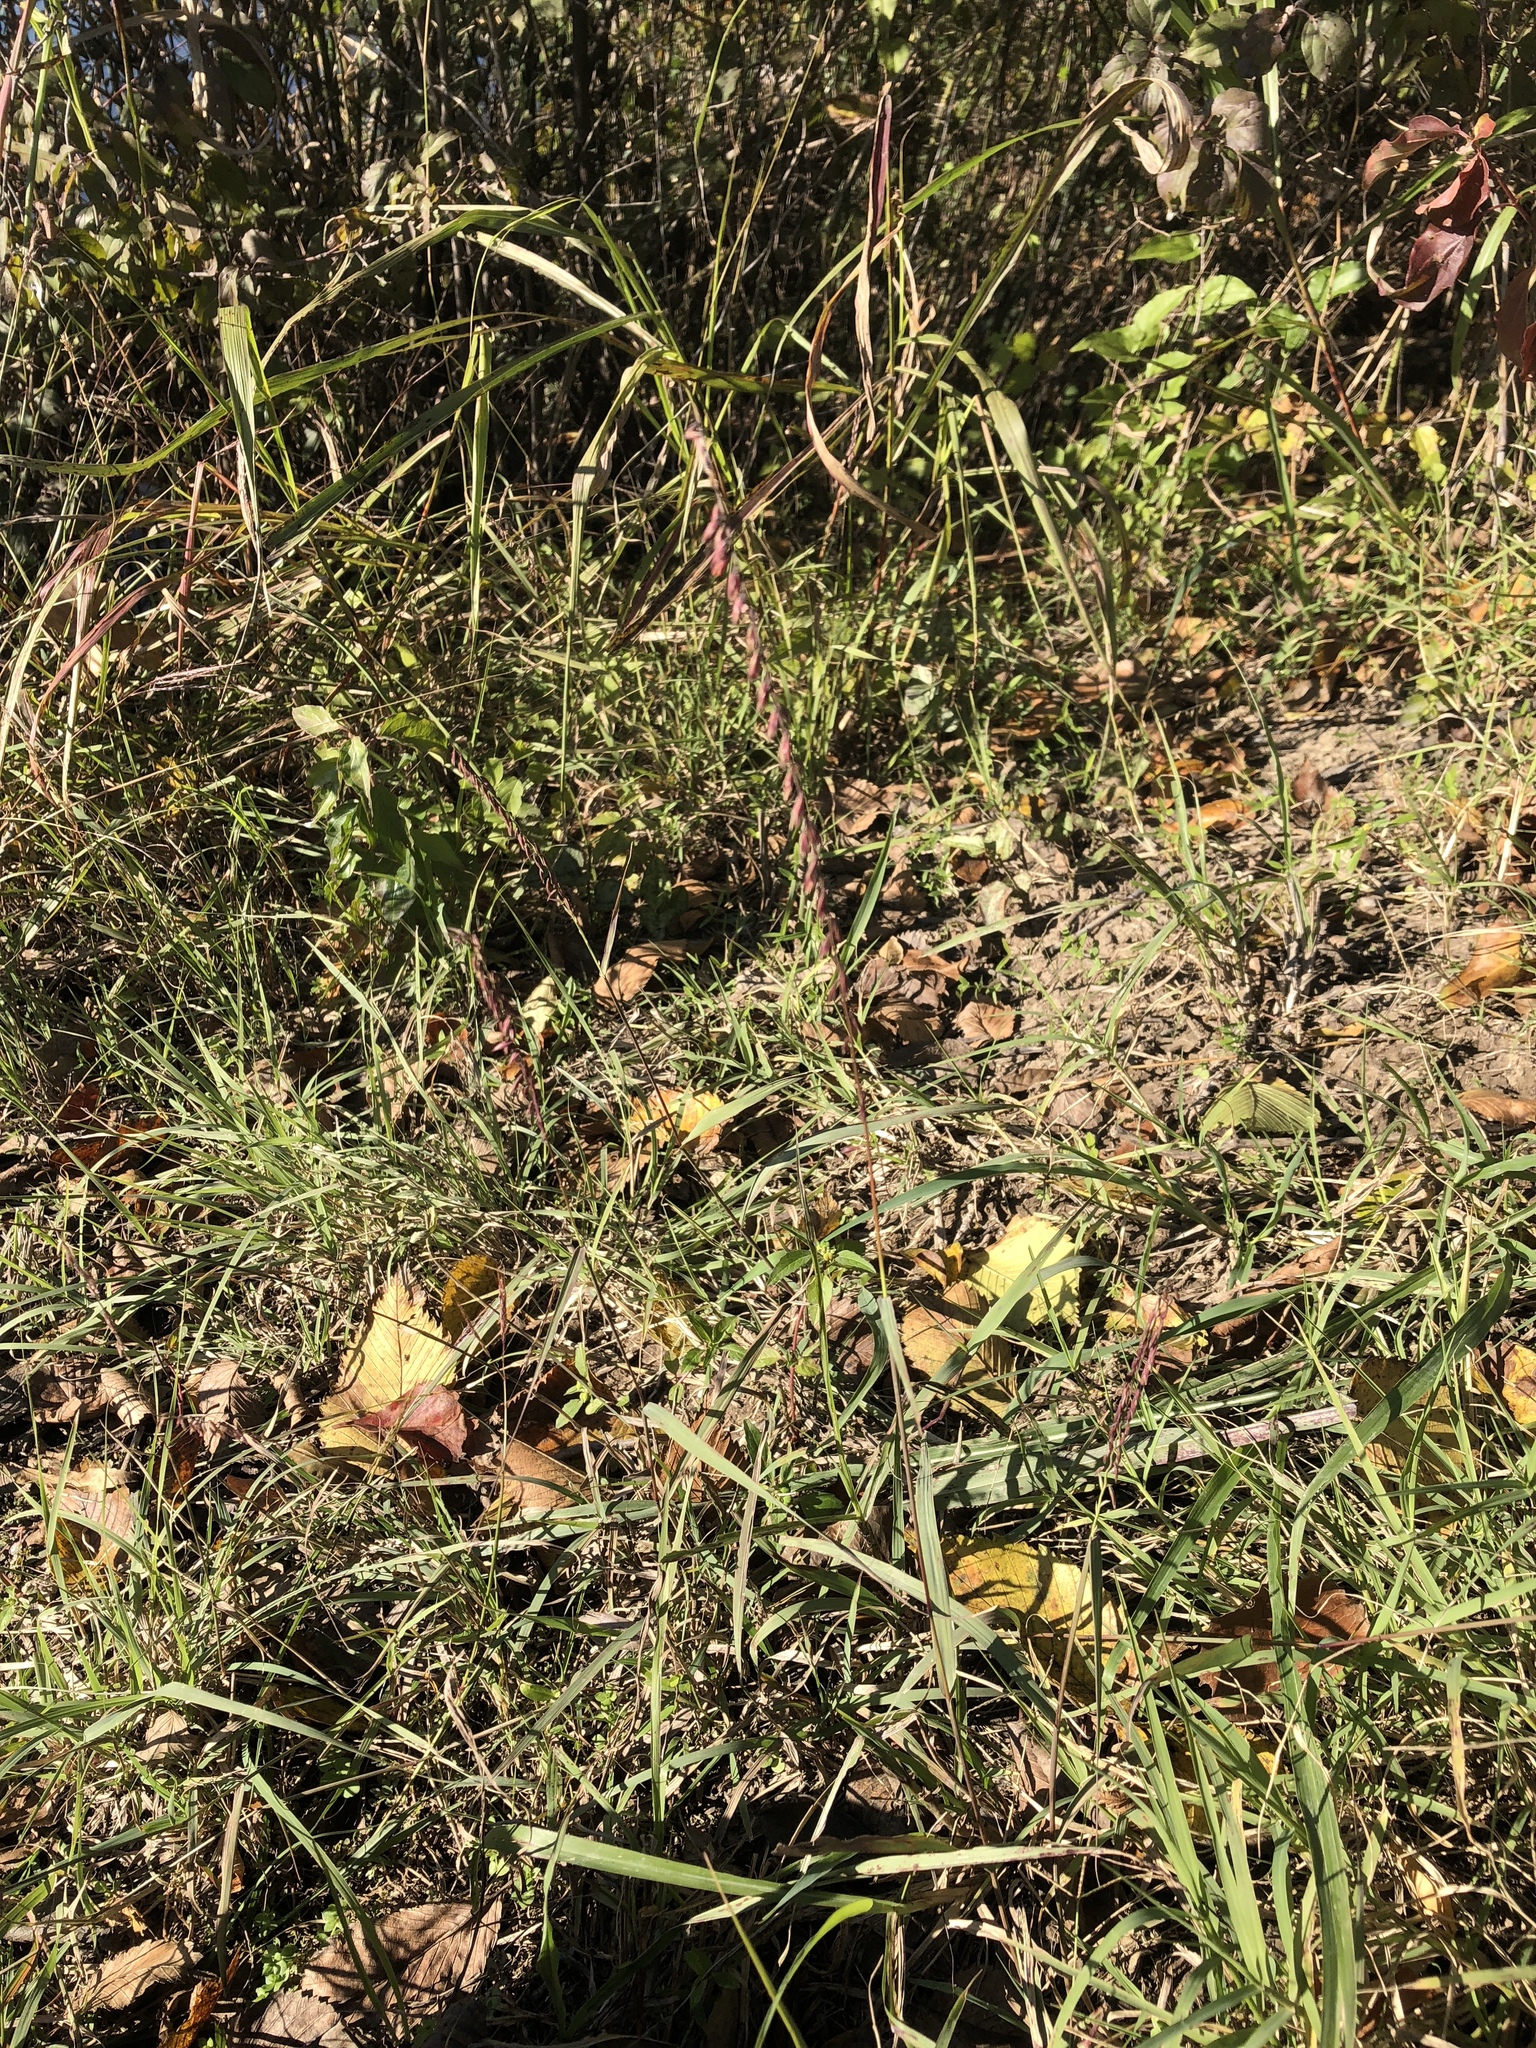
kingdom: Plantae
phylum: Tracheophyta
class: Liliopsida
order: Poales
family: Poaceae
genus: Bouteloua
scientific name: Bouteloua curtipendula
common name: Side-oats grama
